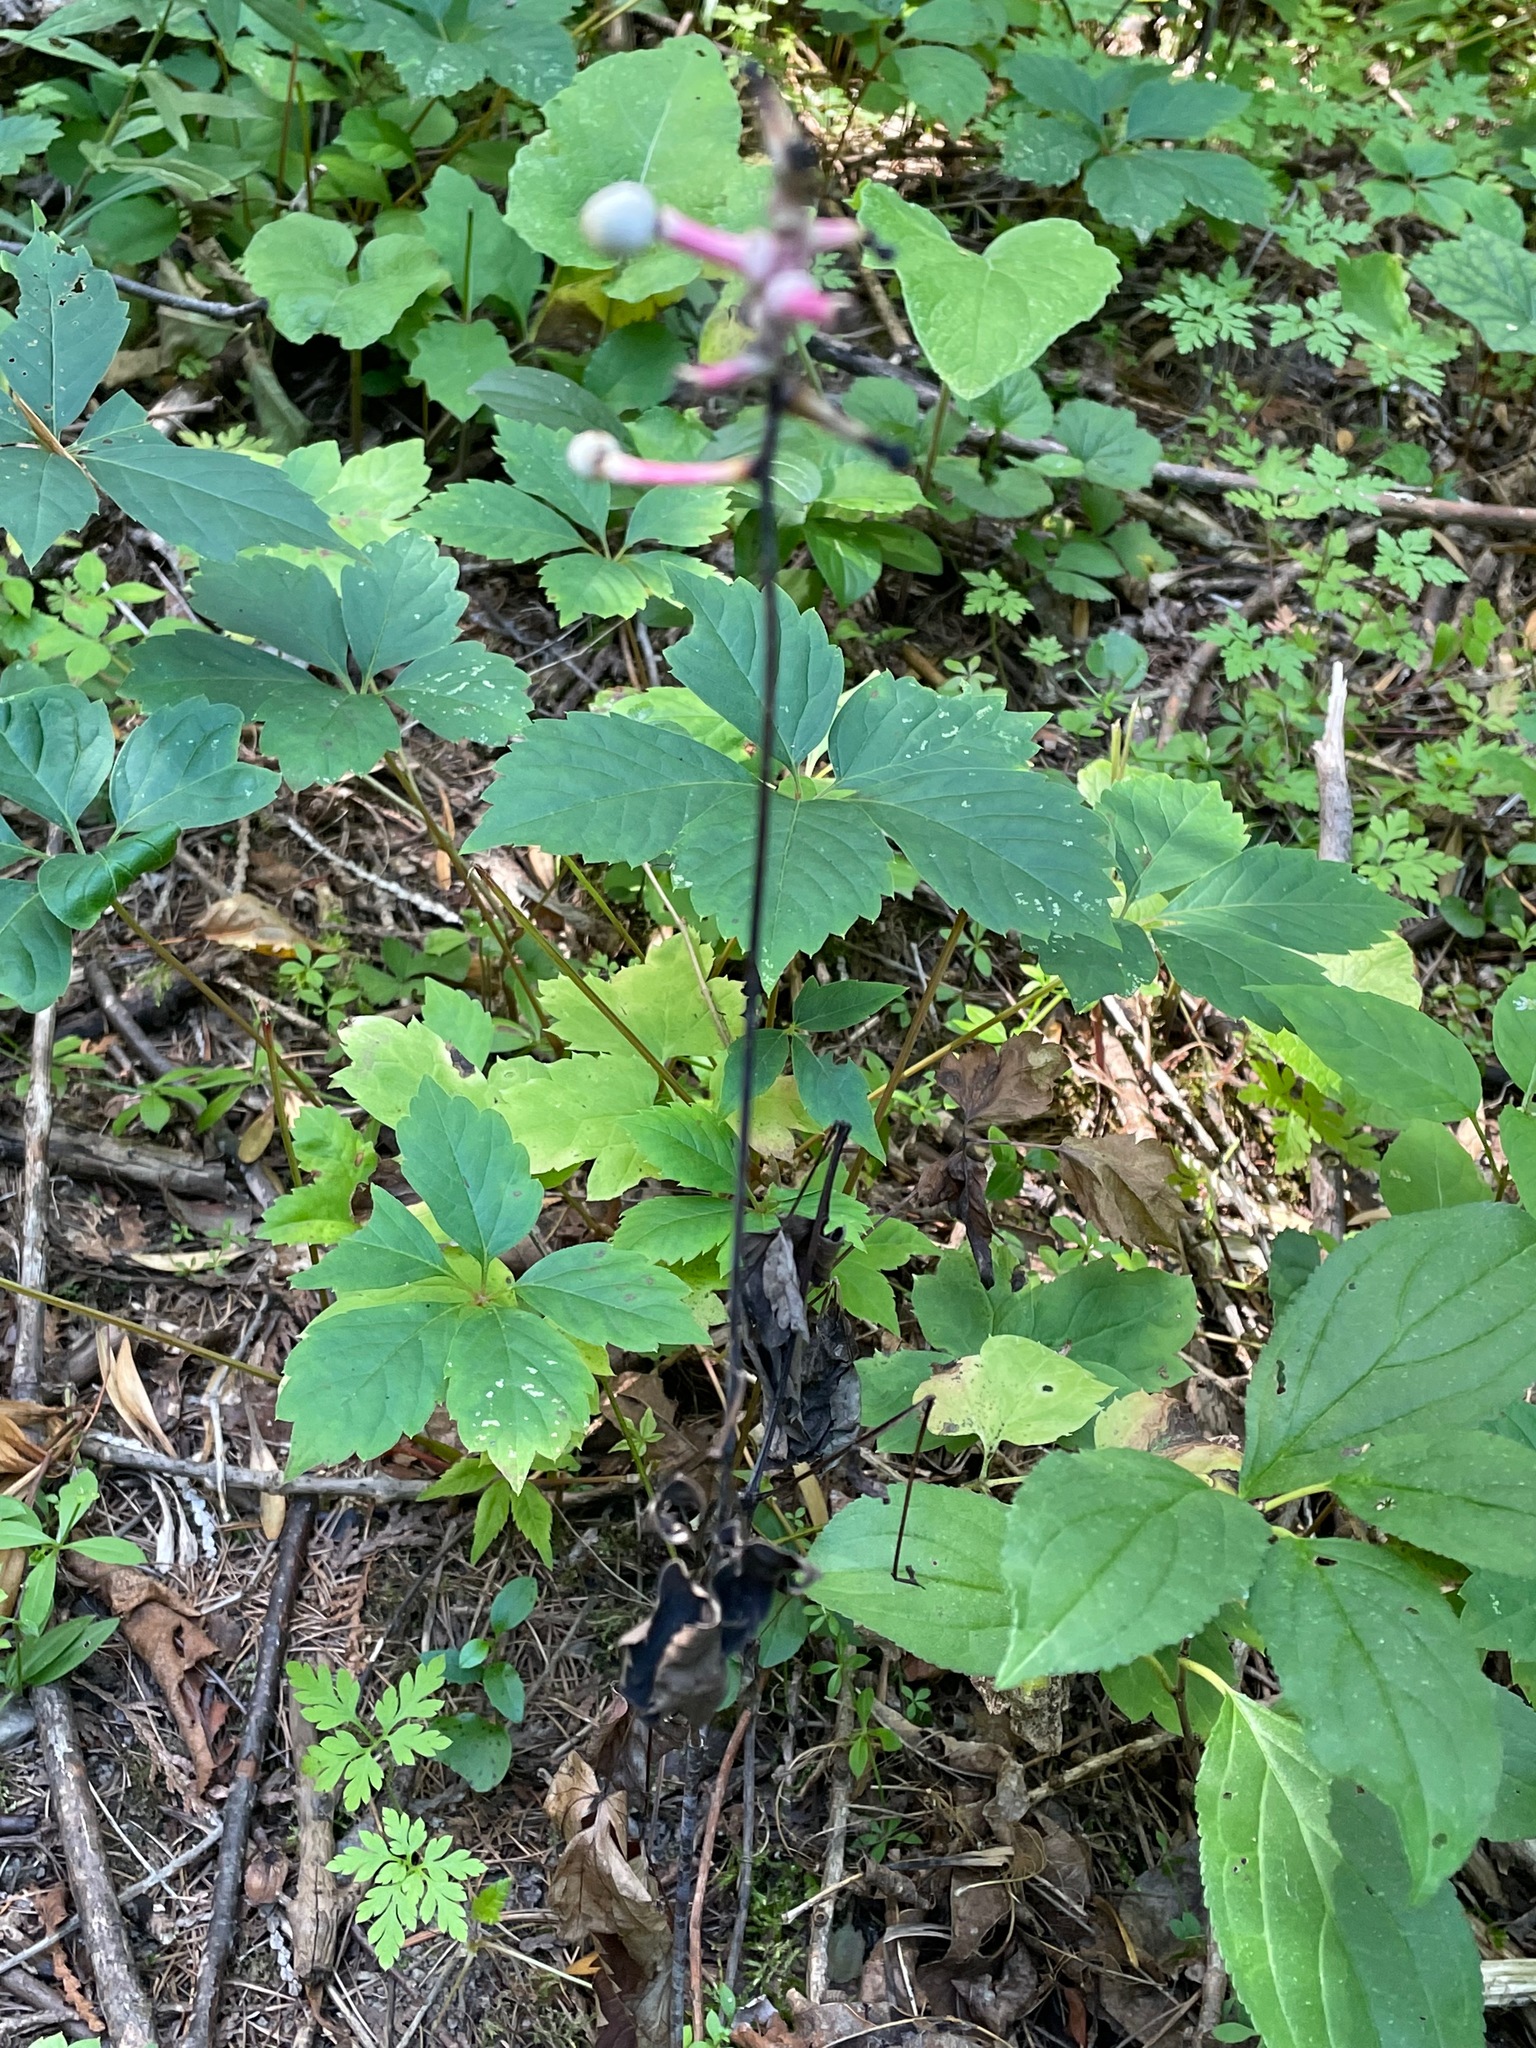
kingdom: Plantae
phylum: Tracheophyta
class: Magnoliopsida
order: Ranunculales
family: Ranunculaceae
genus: Actaea
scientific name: Actaea pachypoda
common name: Doll's-eyes
